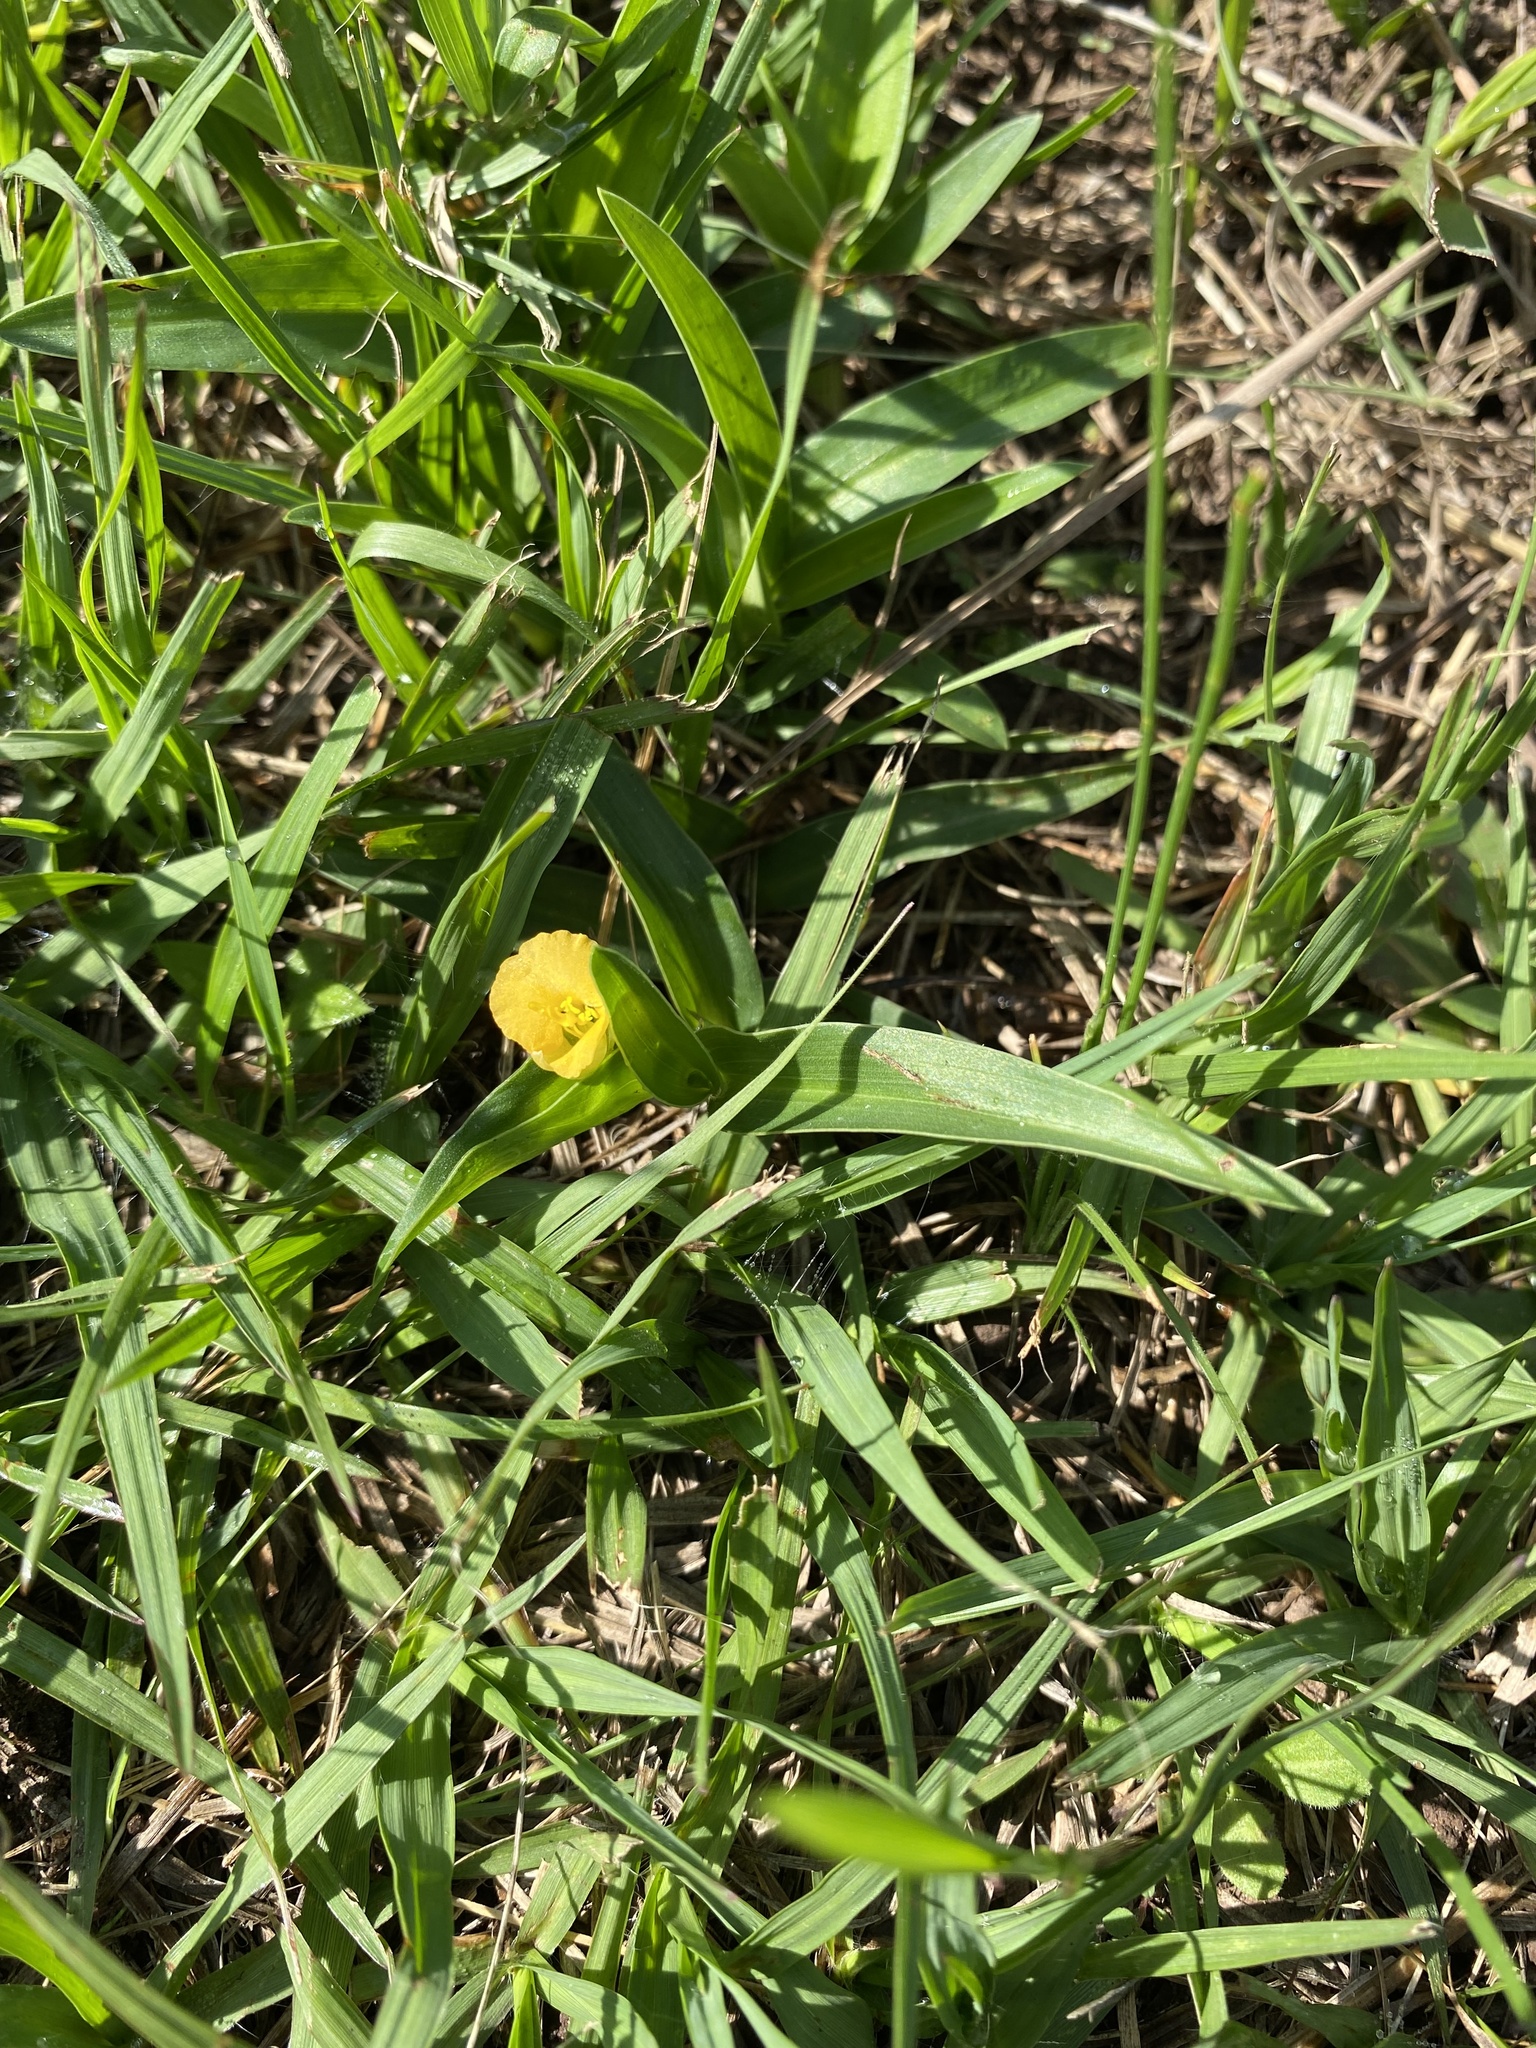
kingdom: Plantae
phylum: Tracheophyta
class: Liliopsida
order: Commelinales
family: Commelinaceae
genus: Commelina
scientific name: Commelina africana
